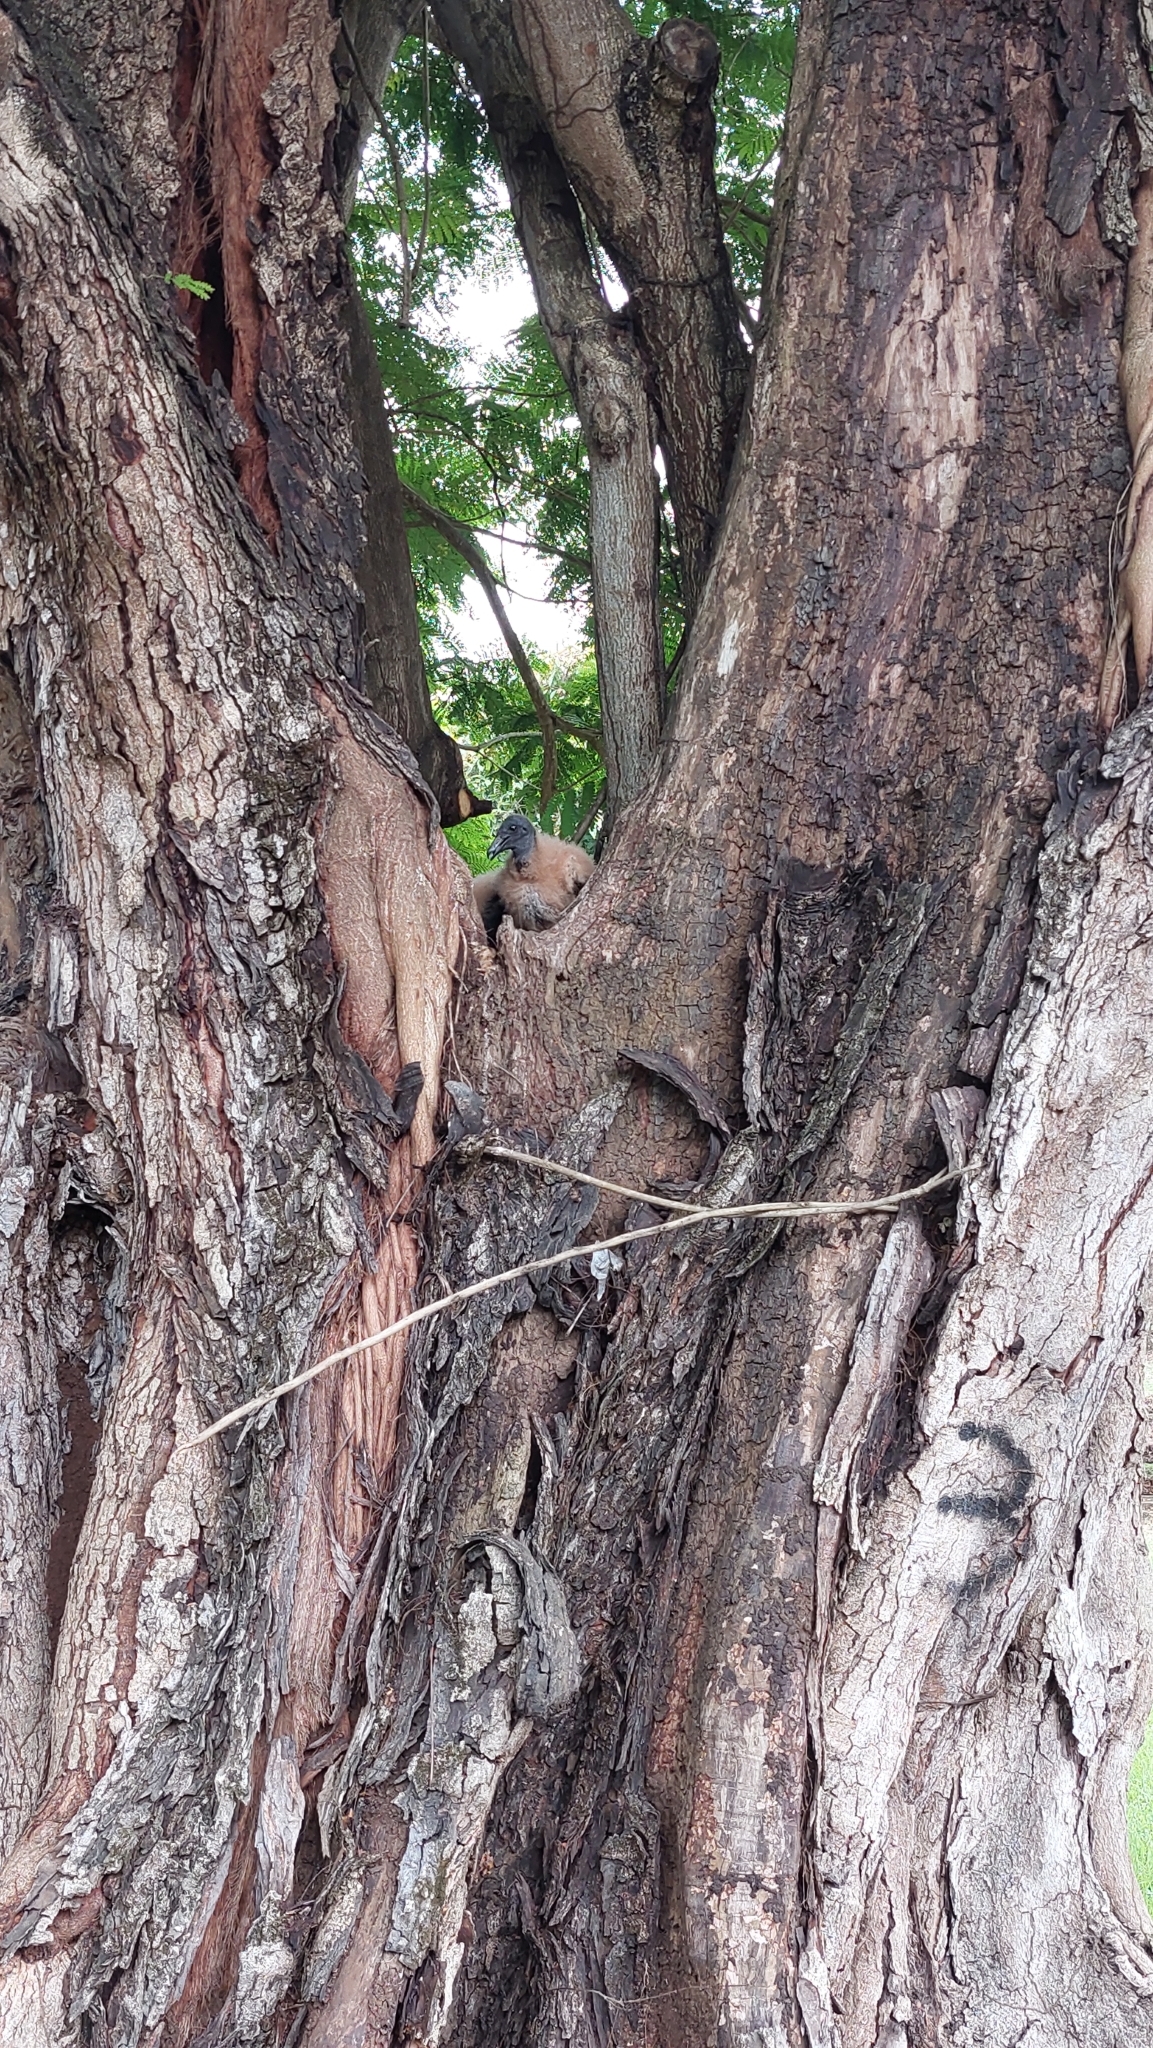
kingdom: Animalia
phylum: Chordata
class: Aves
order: Accipitriformes
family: Cathartidae
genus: Coragyps
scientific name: Coragyps atratus
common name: Black vulture
